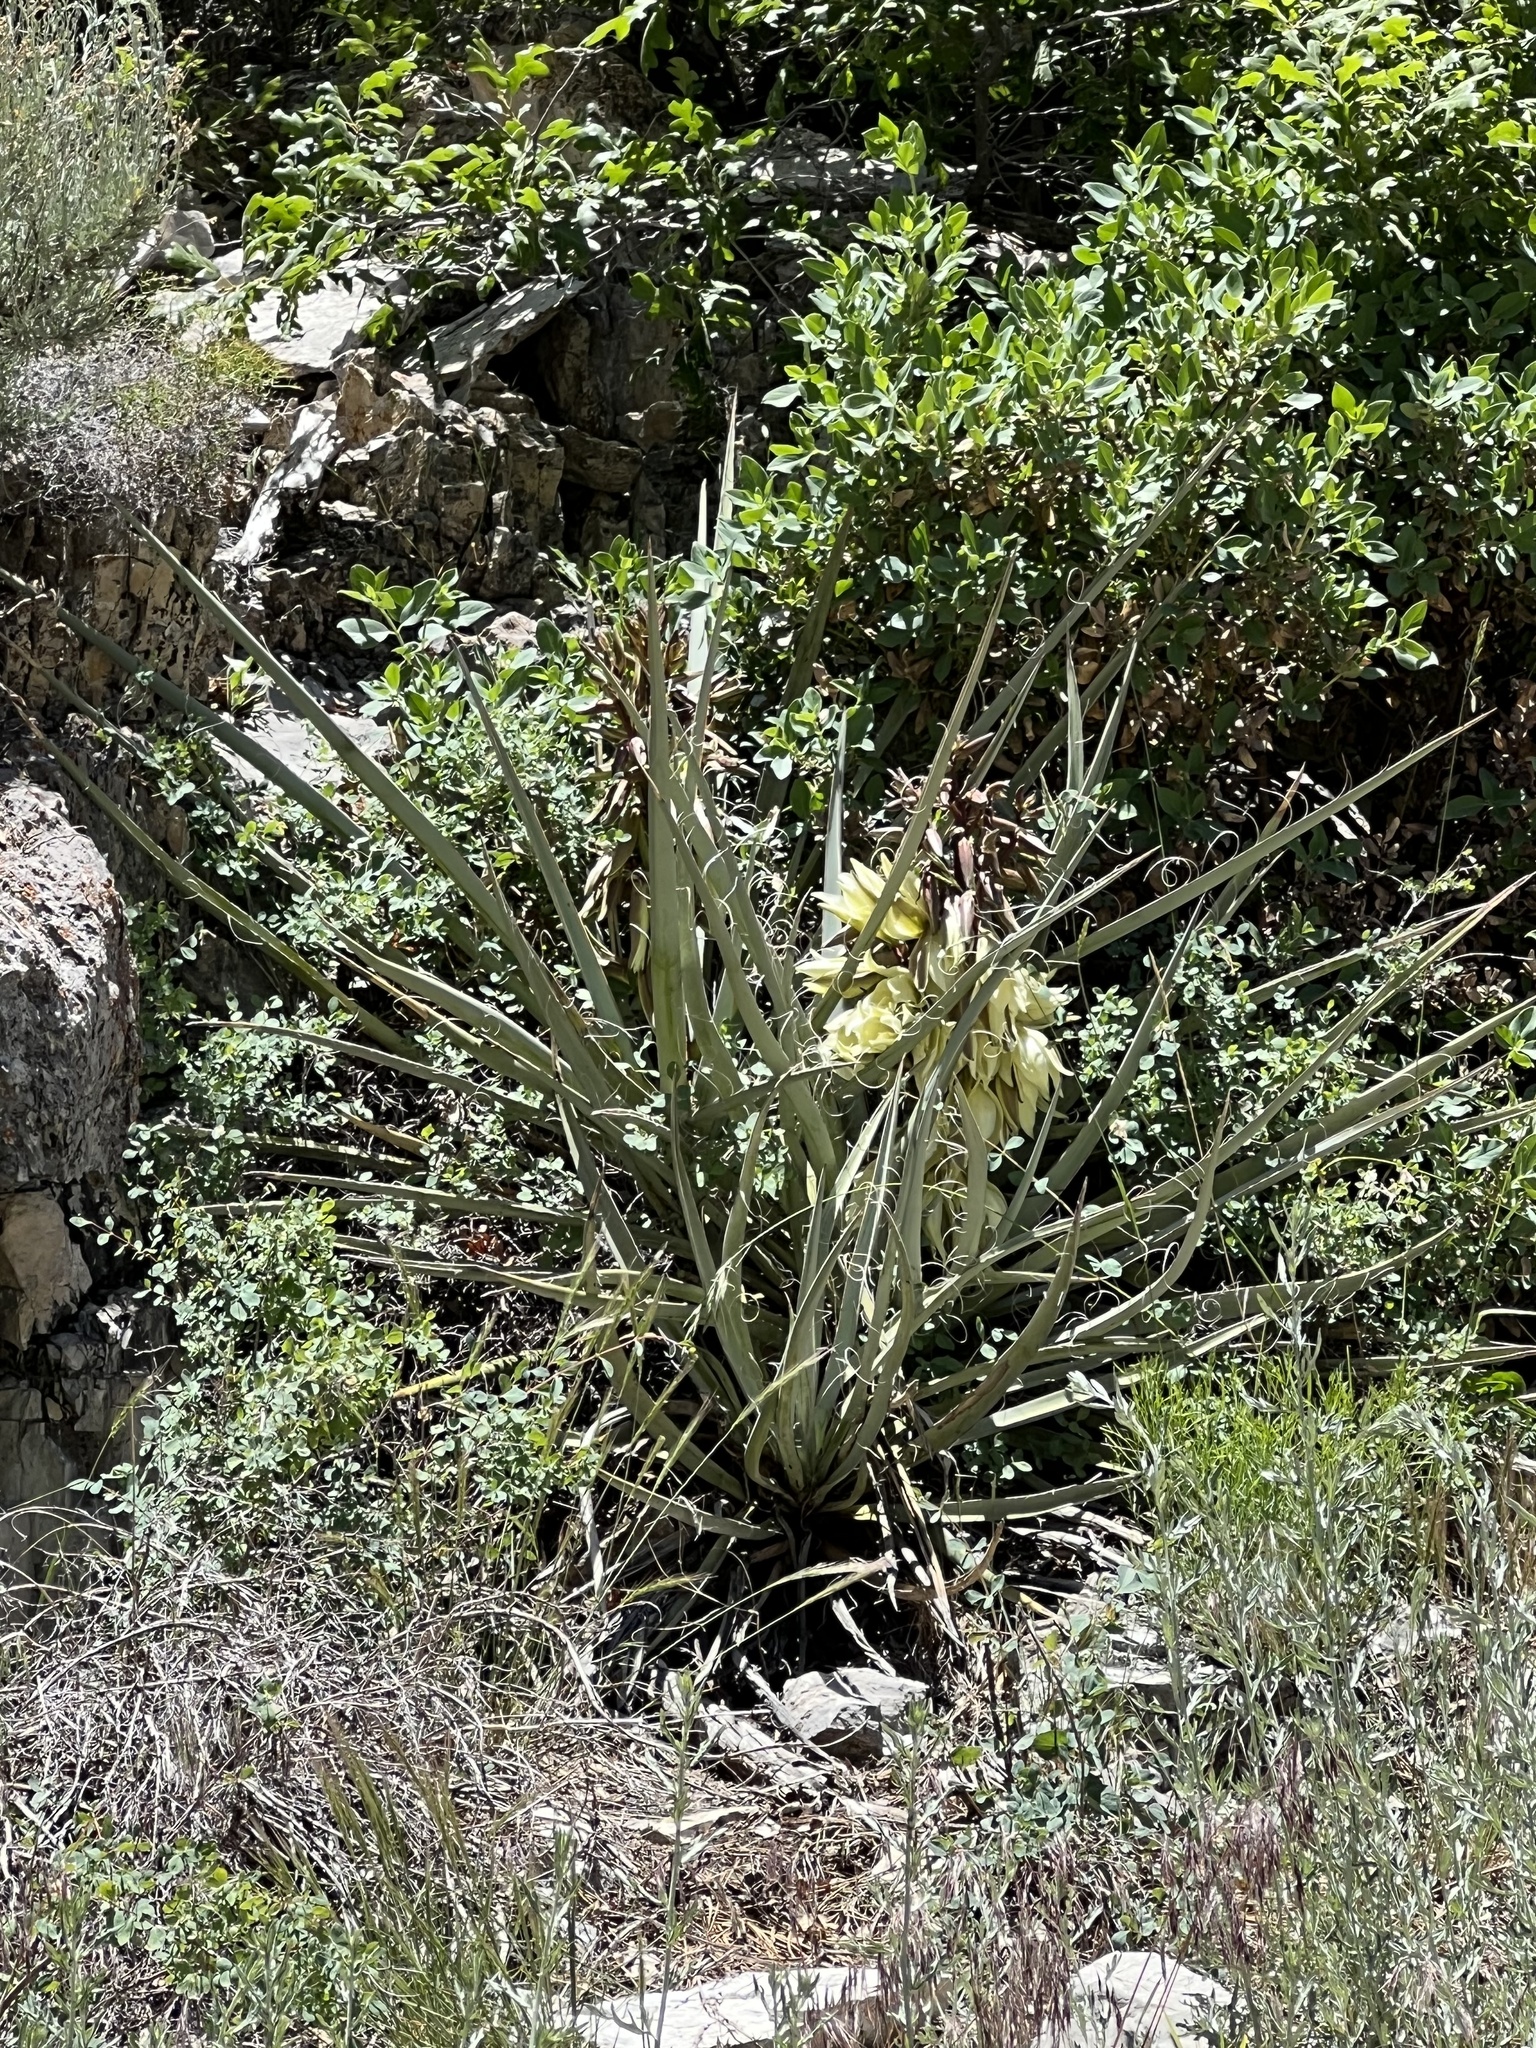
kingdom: Plantae
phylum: Tracheophyta
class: Liliopsida
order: Asparagales
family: Asparagaceae
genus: Yucca
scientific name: Yucca baccata
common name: Banana yucca
